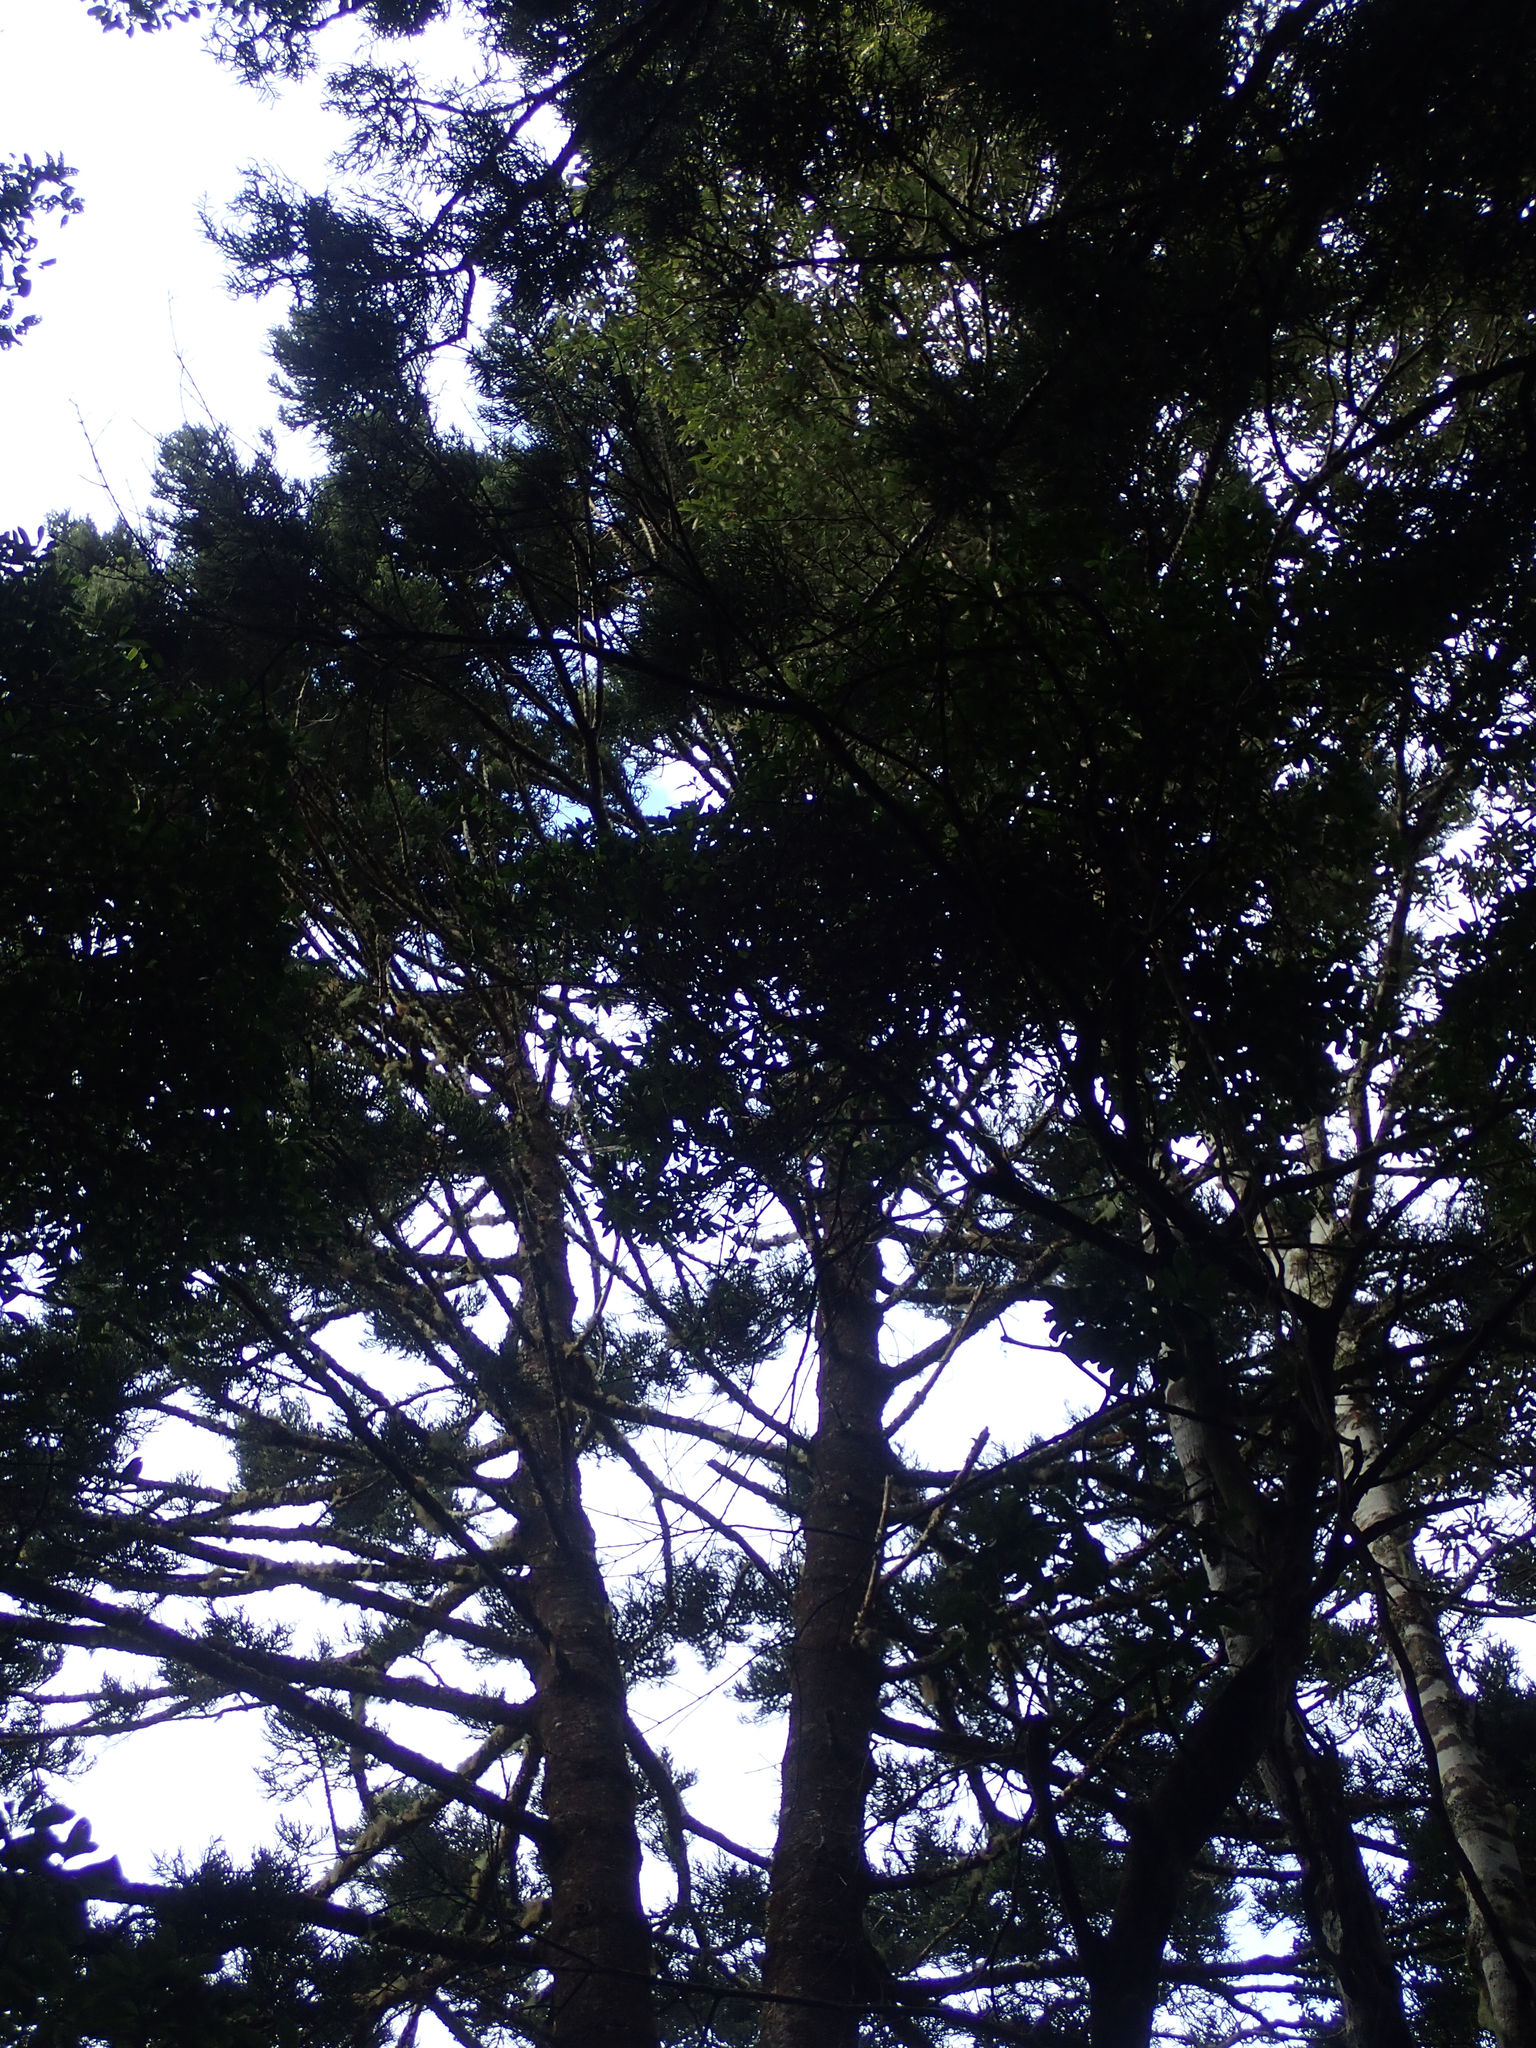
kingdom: Plantae
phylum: Tracheophyta
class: Pinopsida
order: Pinales
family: Araucariaceae
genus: Araucaria
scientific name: Araucaria cunninghamii
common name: Colonial pine
